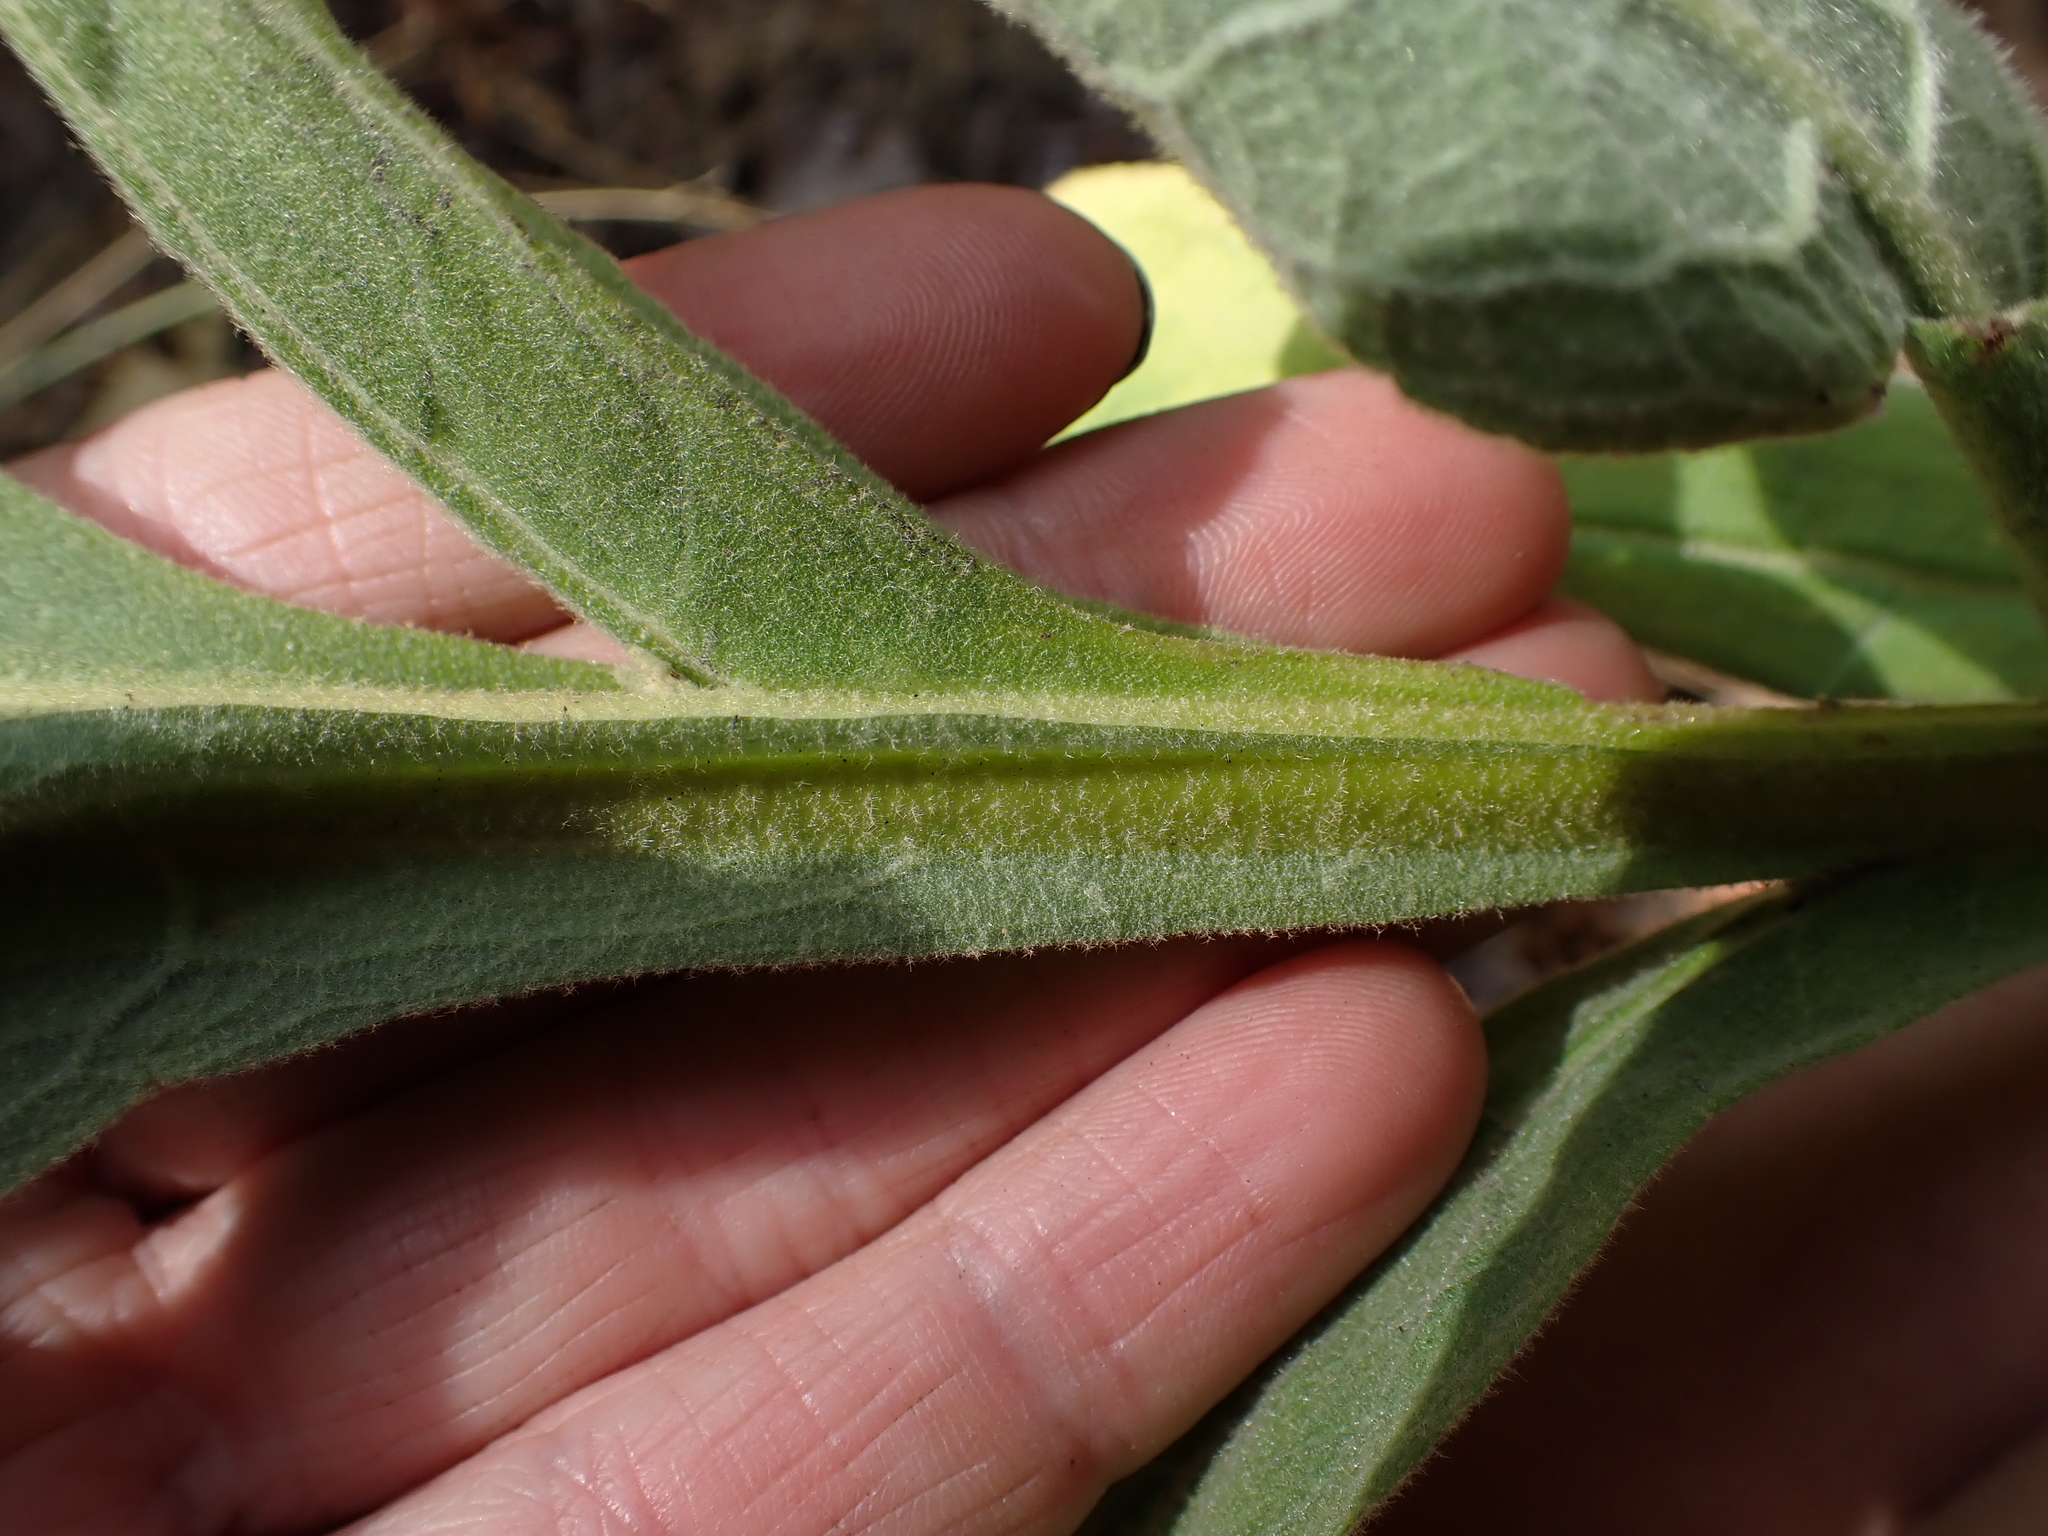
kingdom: Plantae
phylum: Tracheophyta
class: Magnoliopsida
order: Lamiales
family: Scrophulariaceae
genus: Verbascum
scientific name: Verbascum thapsus
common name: Common mullein
